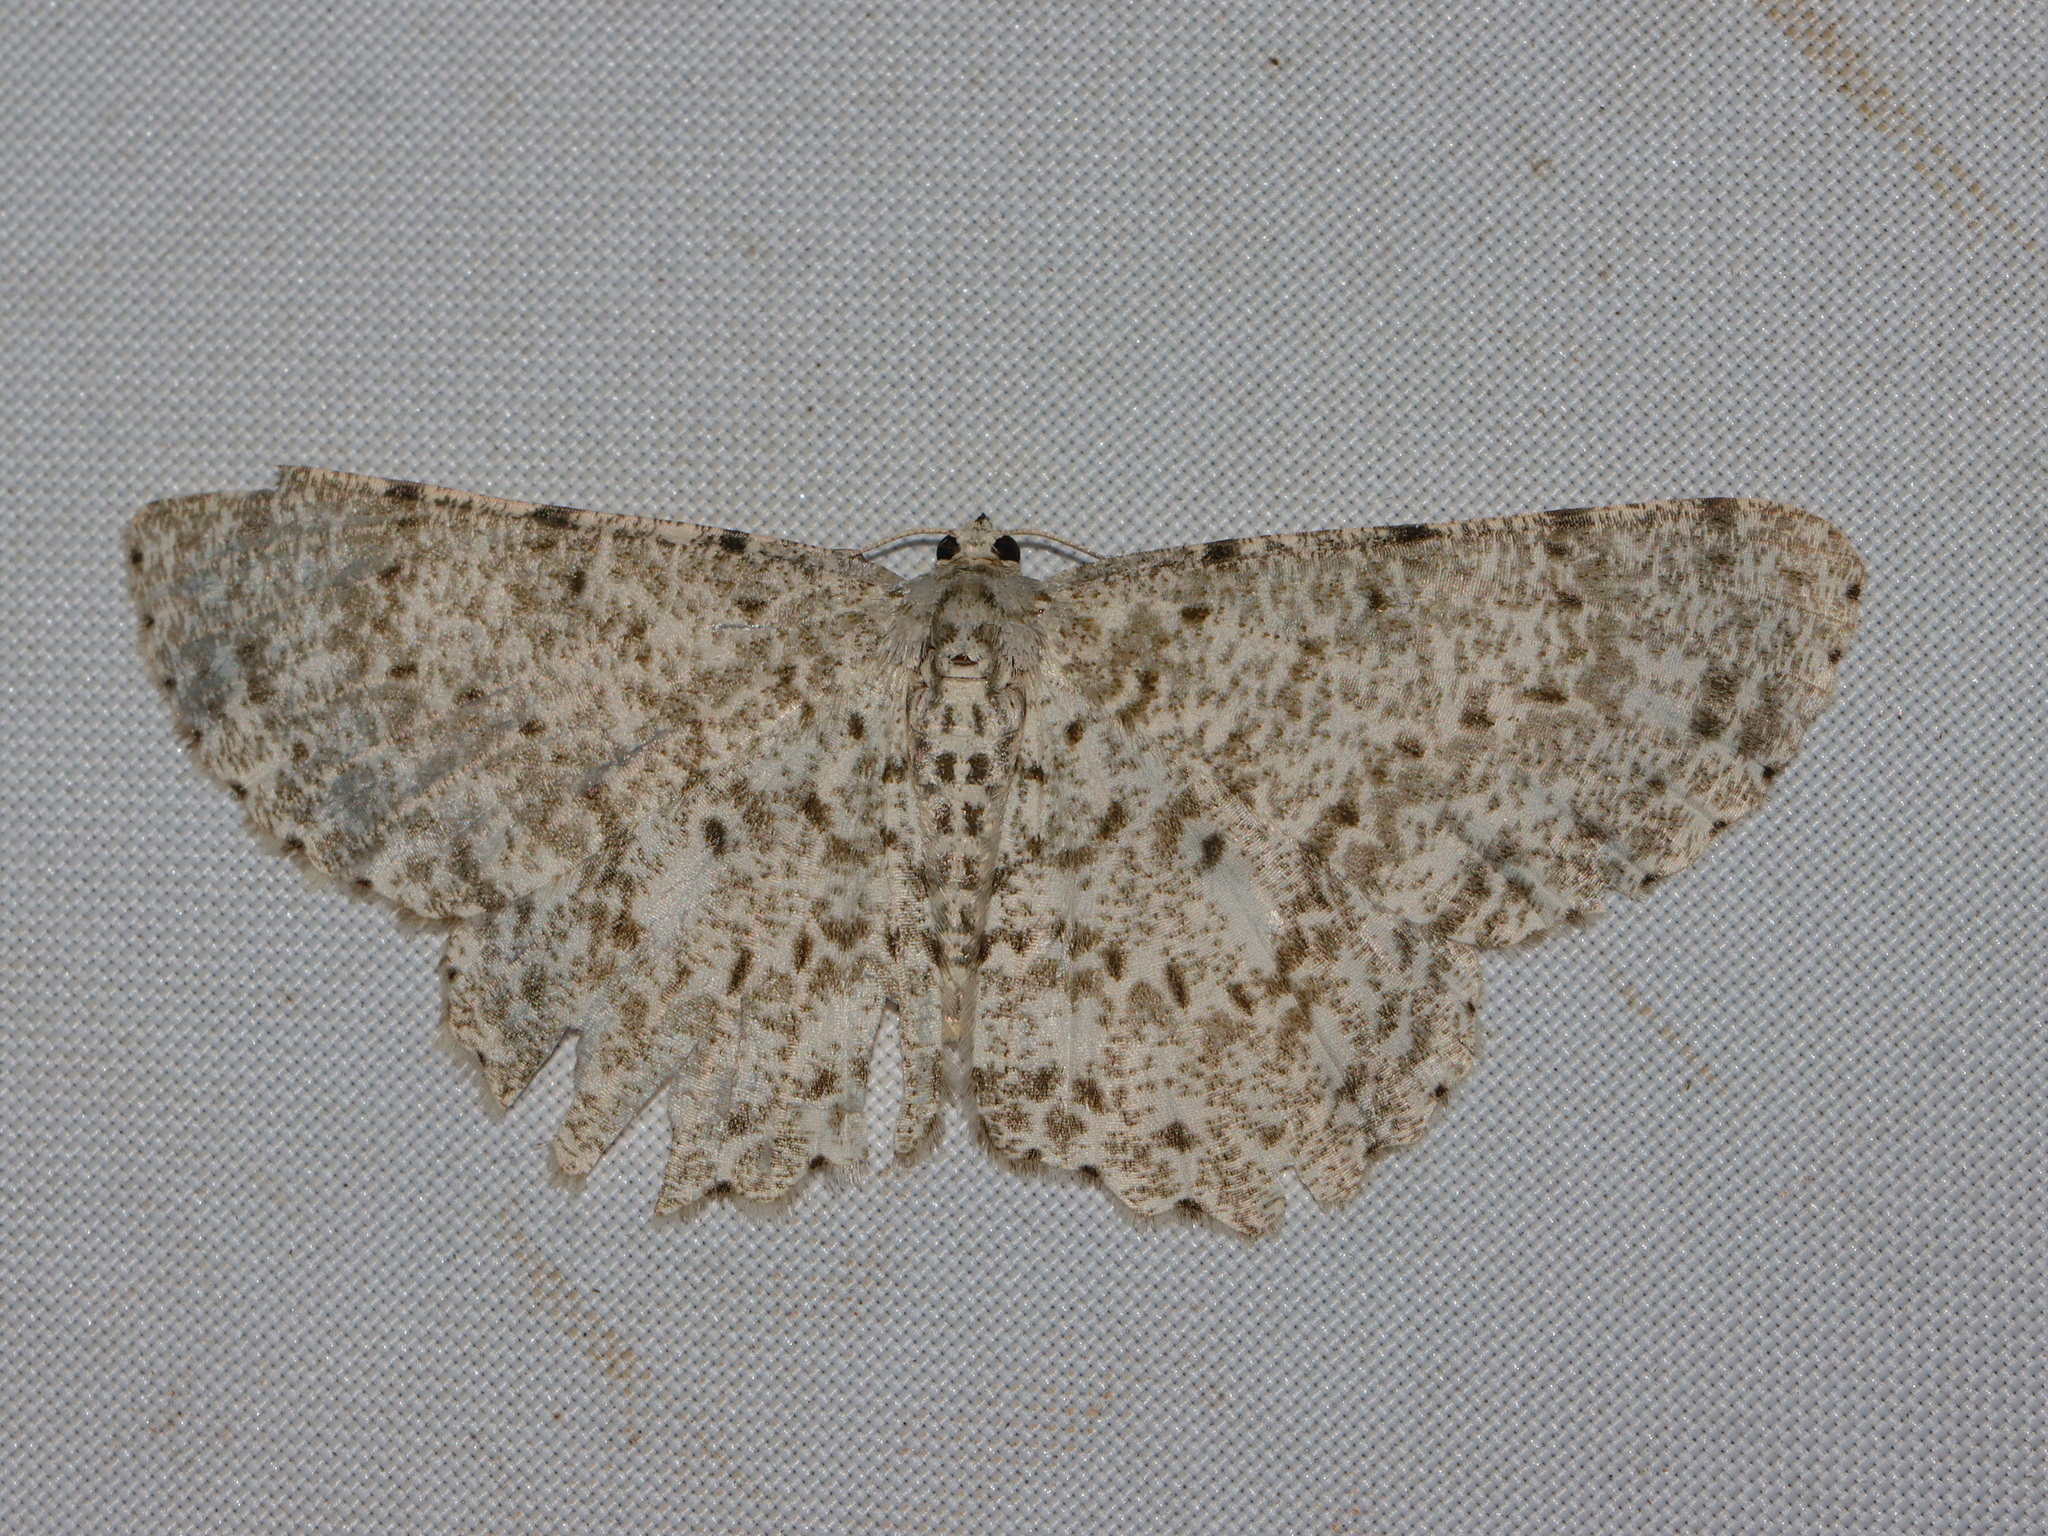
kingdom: Animalia
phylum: Arthropoda
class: Insecta
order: Lepidoptera
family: Geometridae
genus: Catoria
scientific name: Catoria sublavaria
